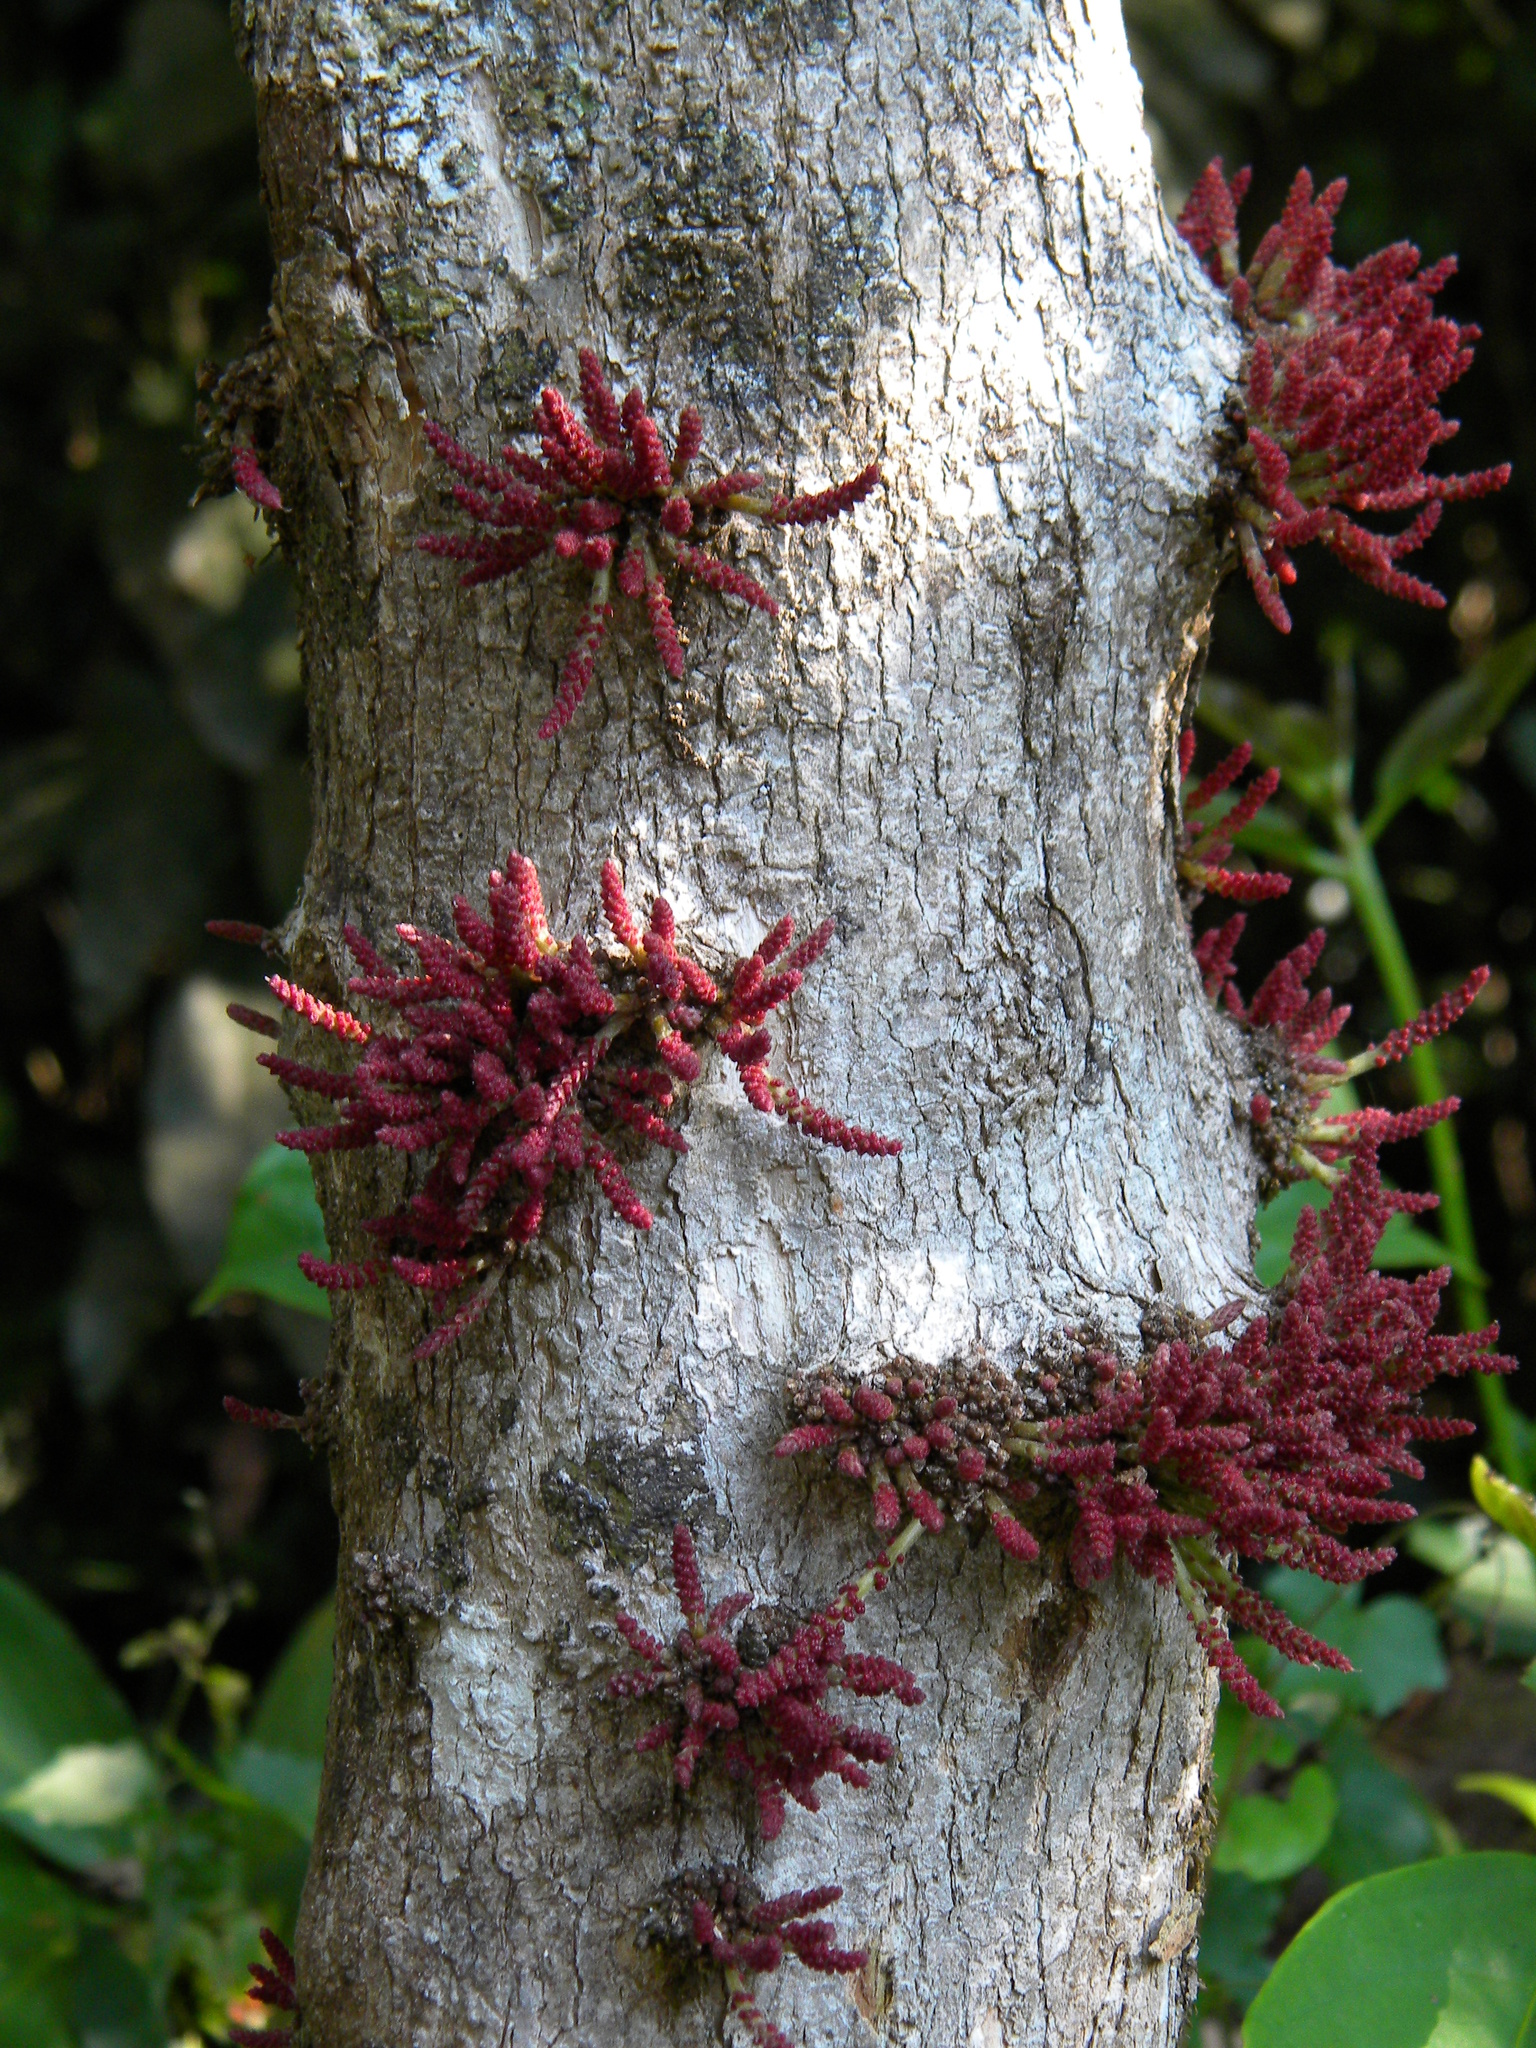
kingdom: Plantae
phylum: Tracheophyta
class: Magnoliopsida
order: Malpighiales
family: Phyllanthaceae
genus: Baccaurea
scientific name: Baccaurea courtallensis
